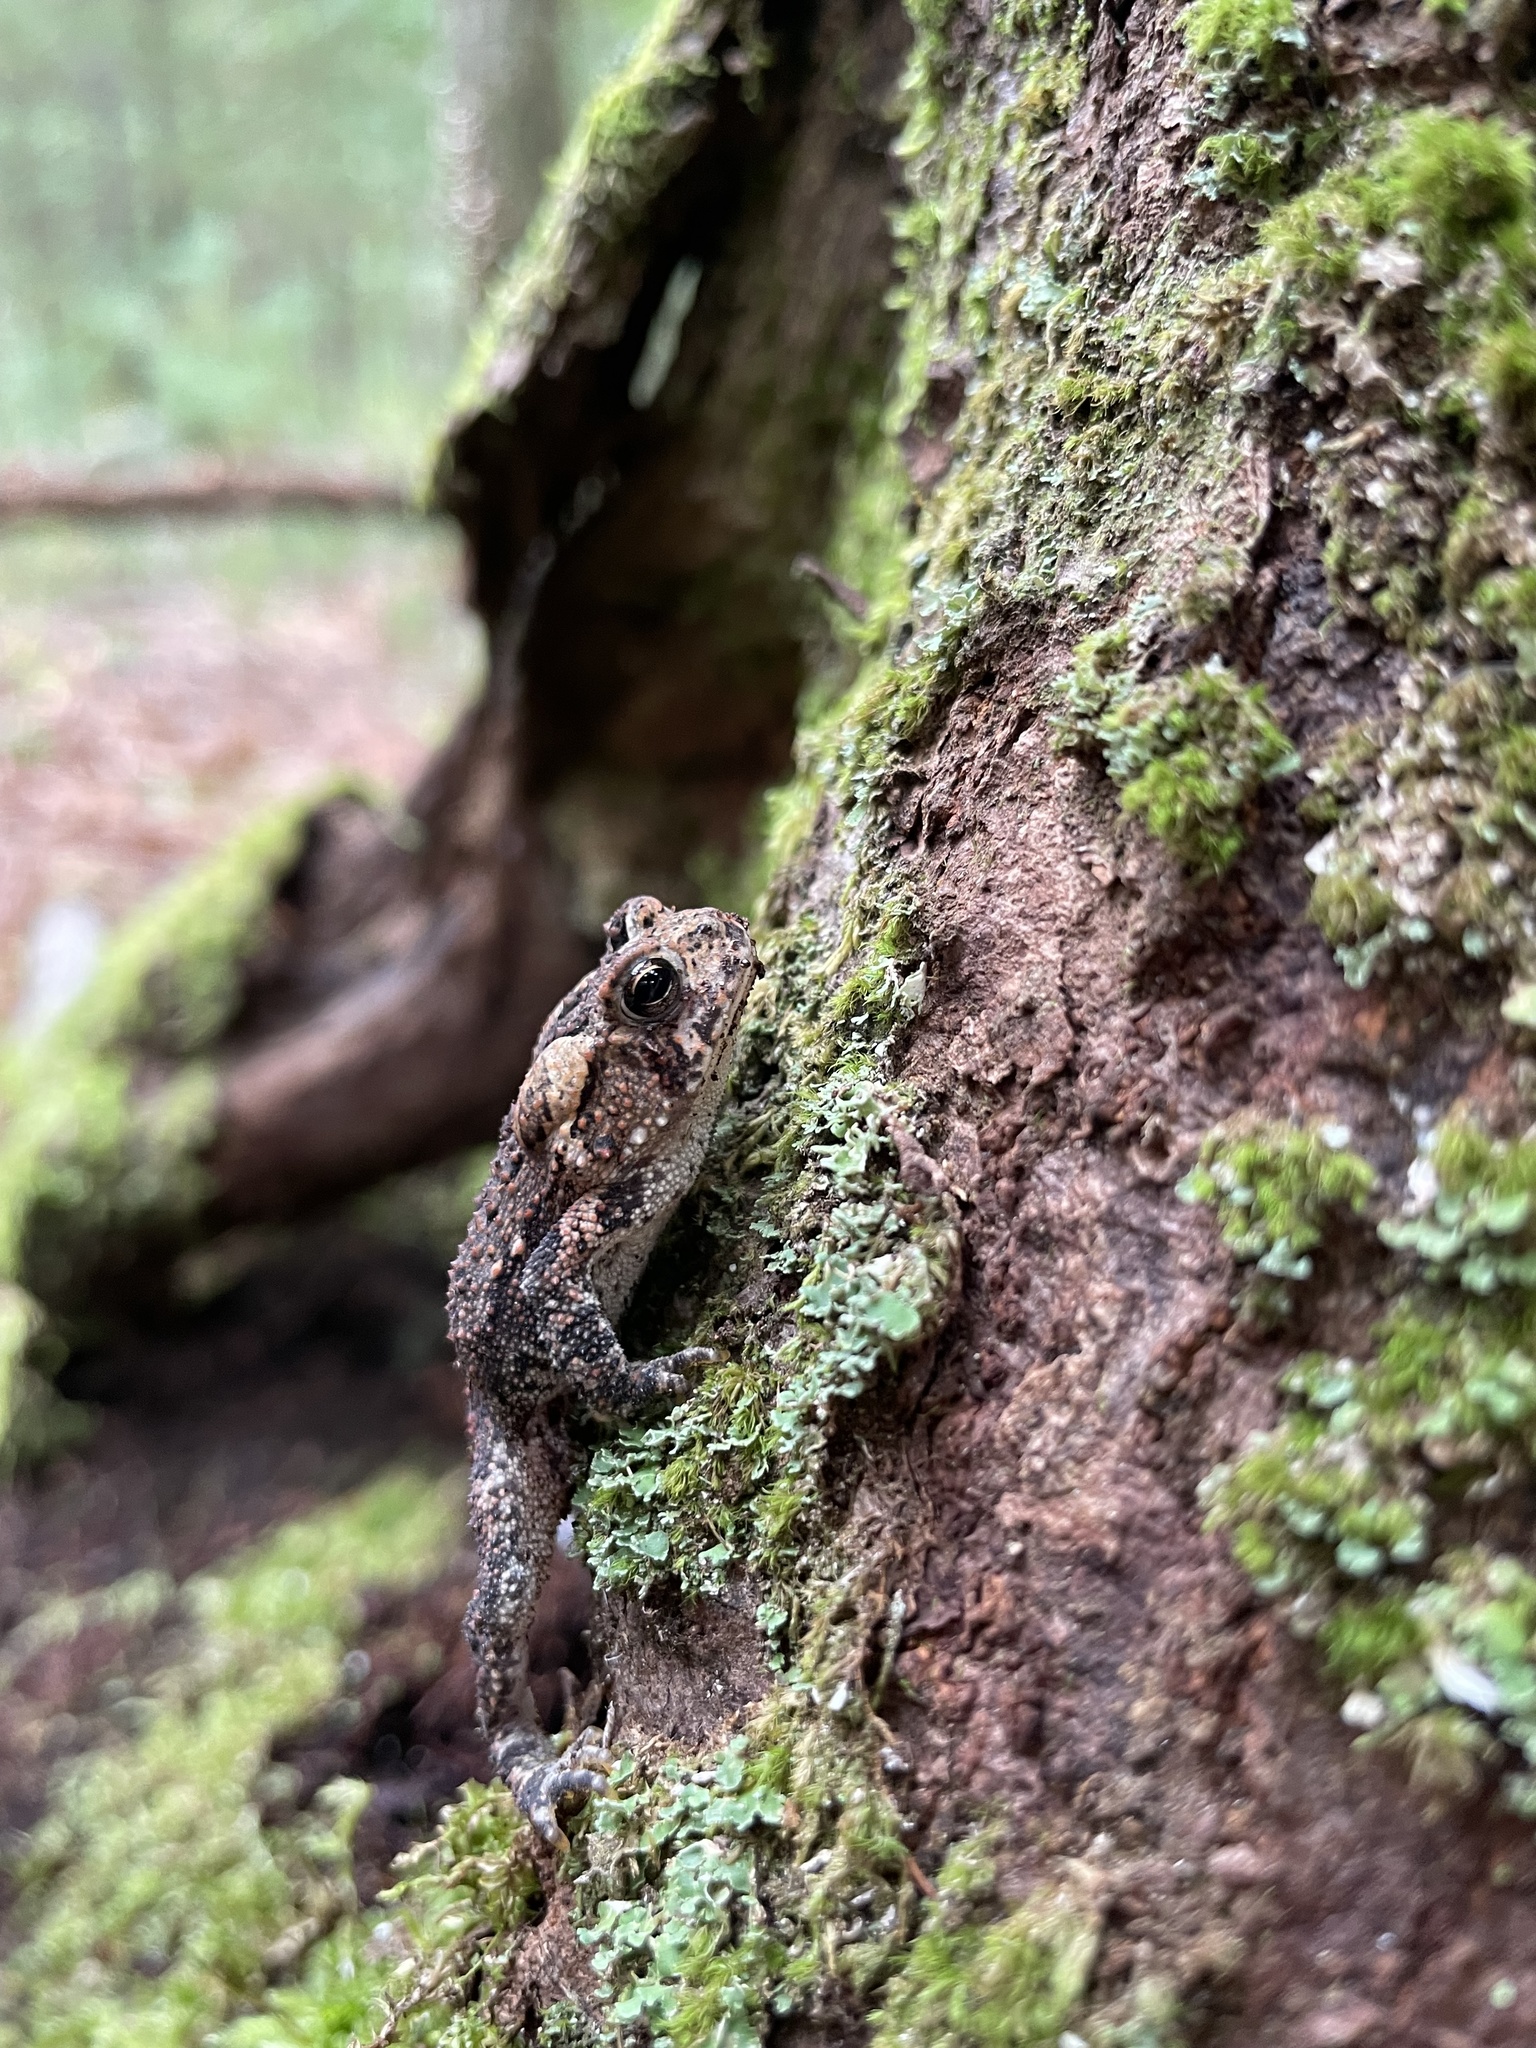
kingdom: Animalia
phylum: Chordata
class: Amphibia
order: Anura
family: Bufonidae
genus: Anaxyrus
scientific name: Anaxyrus americanus
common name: American toad
